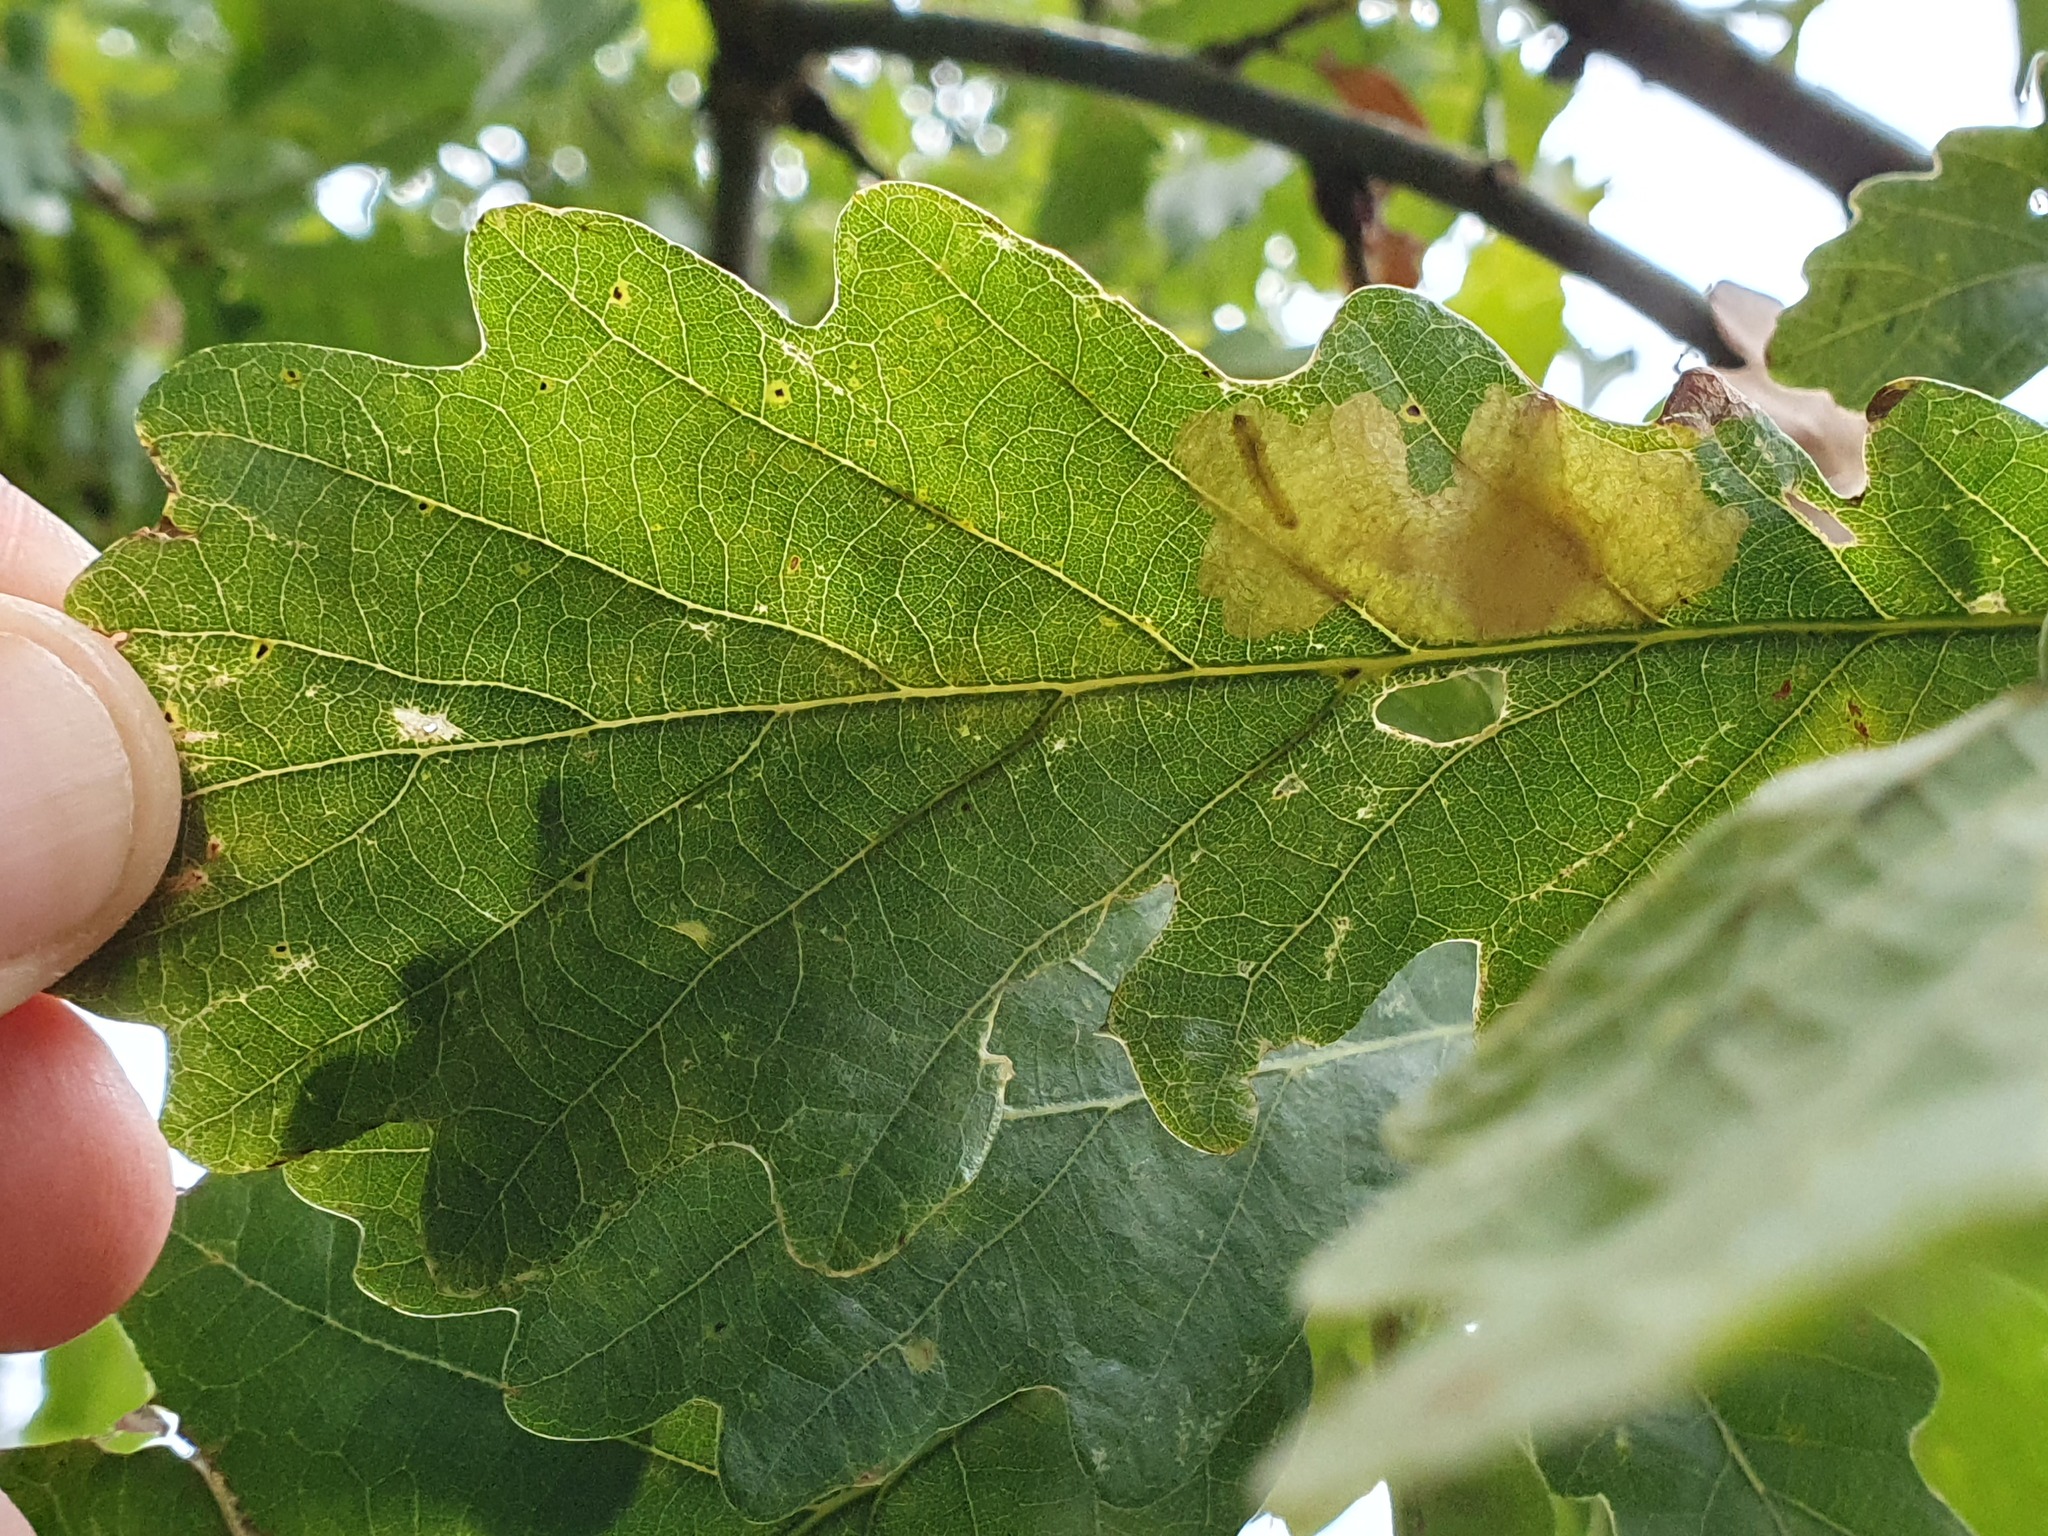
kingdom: Animalia
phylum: Arthropoda
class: Insecta
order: Lepidoptera
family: Tischeriidae
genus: Tischeria
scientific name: Tischeria ekebladella
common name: Oak carl
